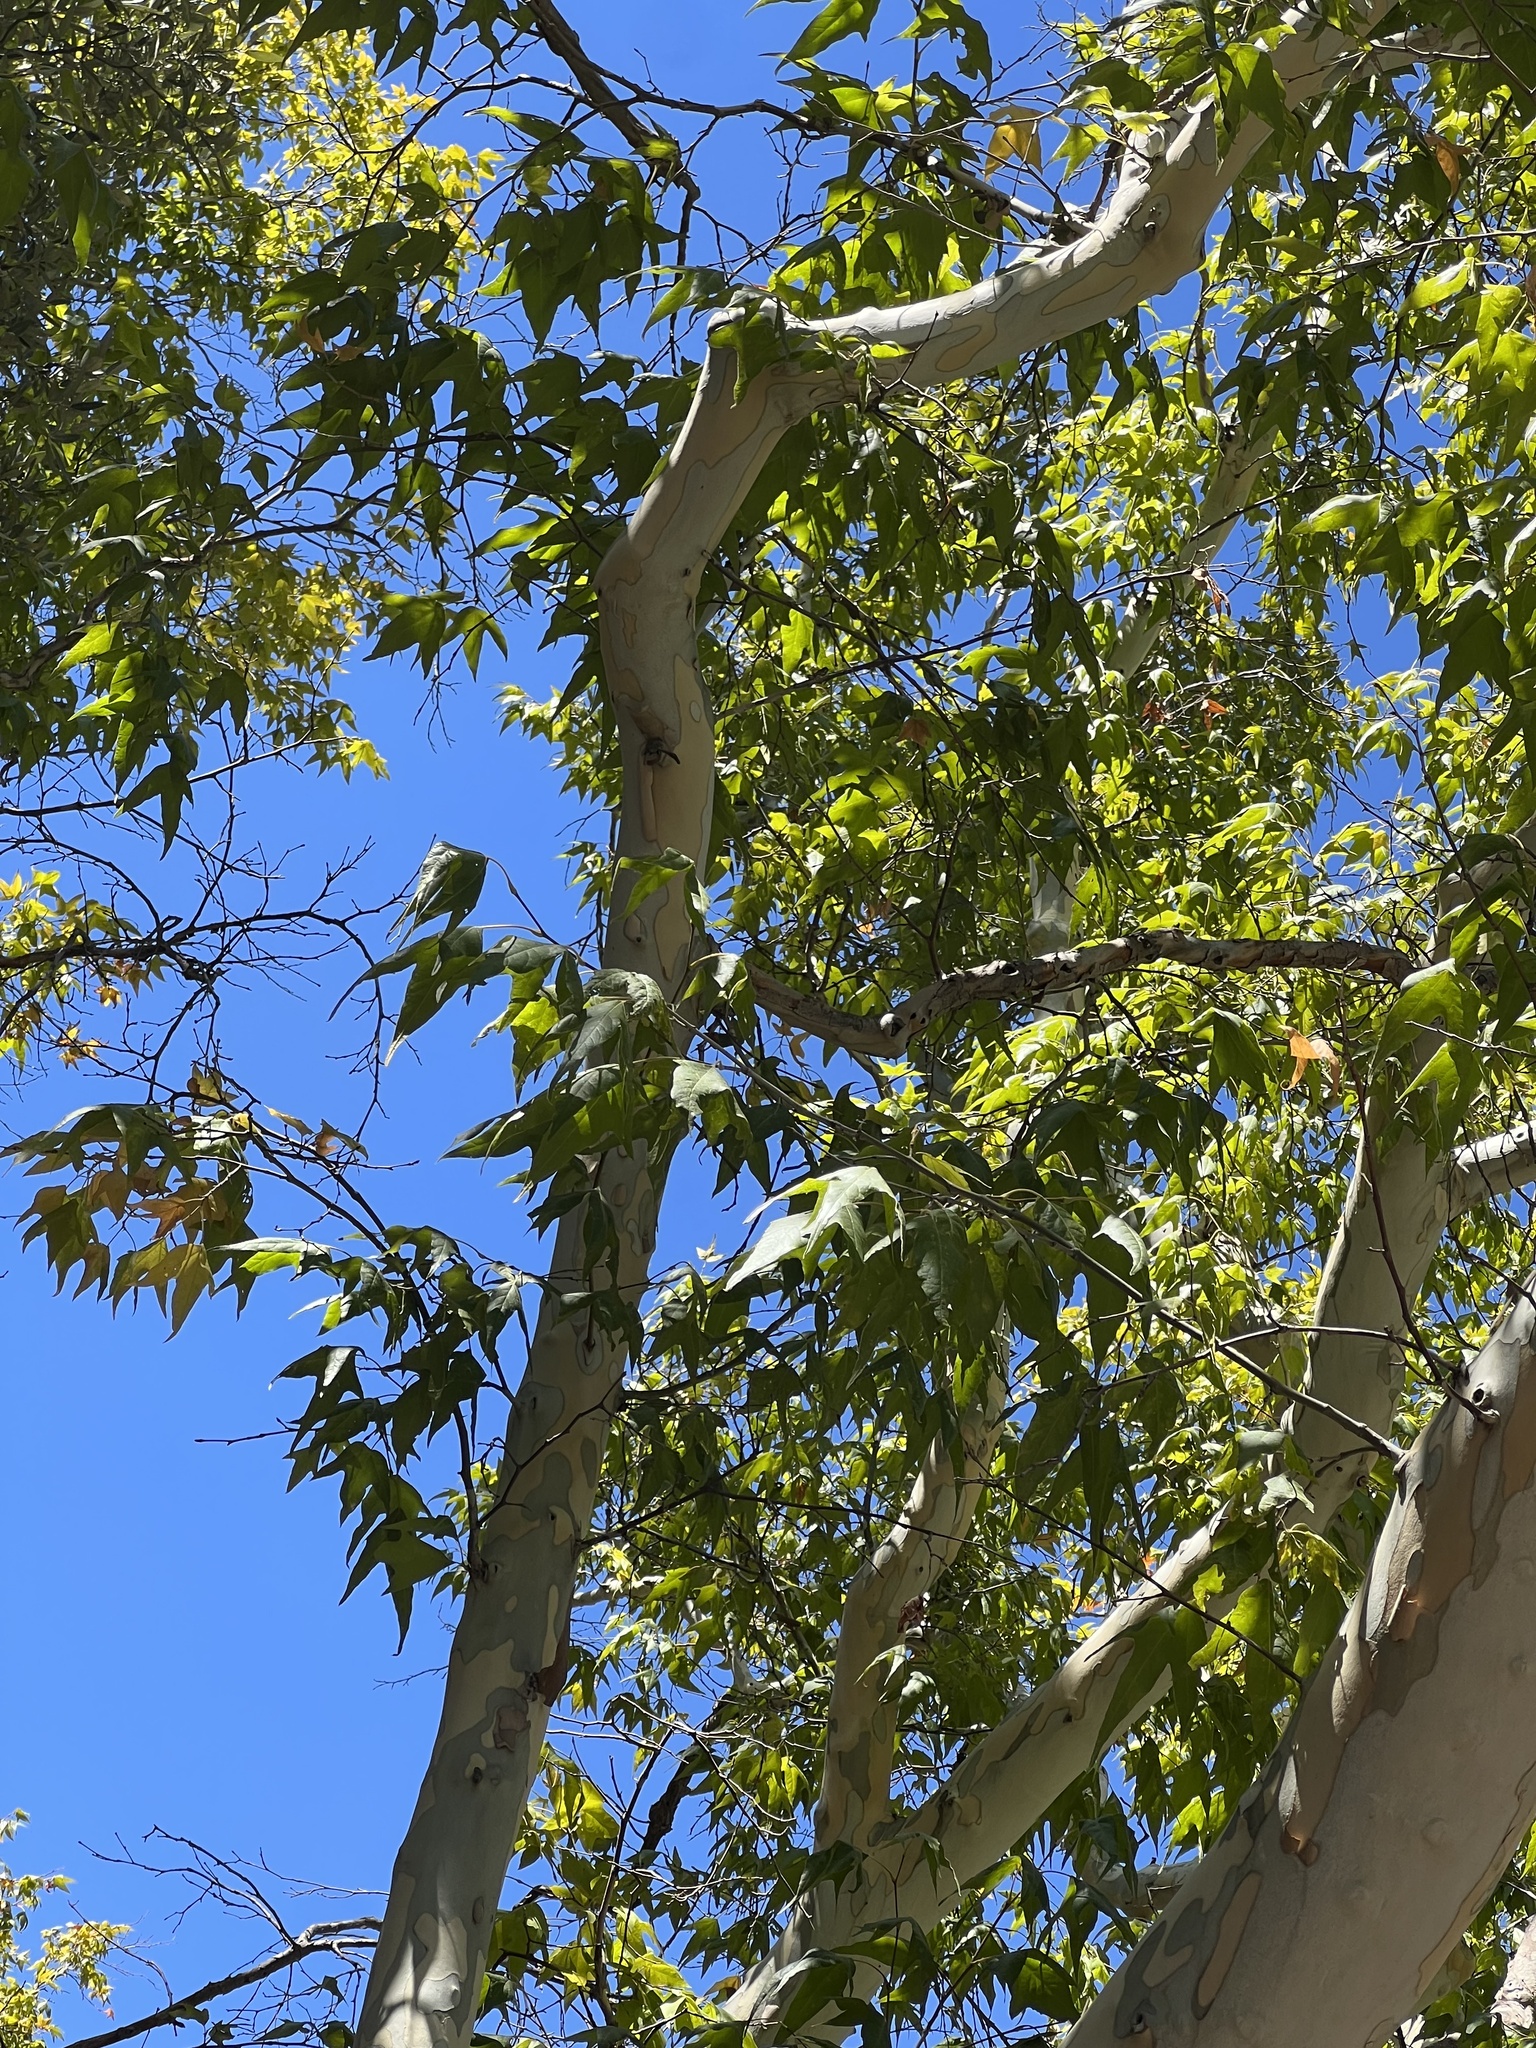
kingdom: Plantae
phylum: Tracheophyta
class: Magnoliopsida
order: Proteales
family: Platanaceae
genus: Platanus
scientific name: Platanus wrightii
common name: Arizona sycamore
